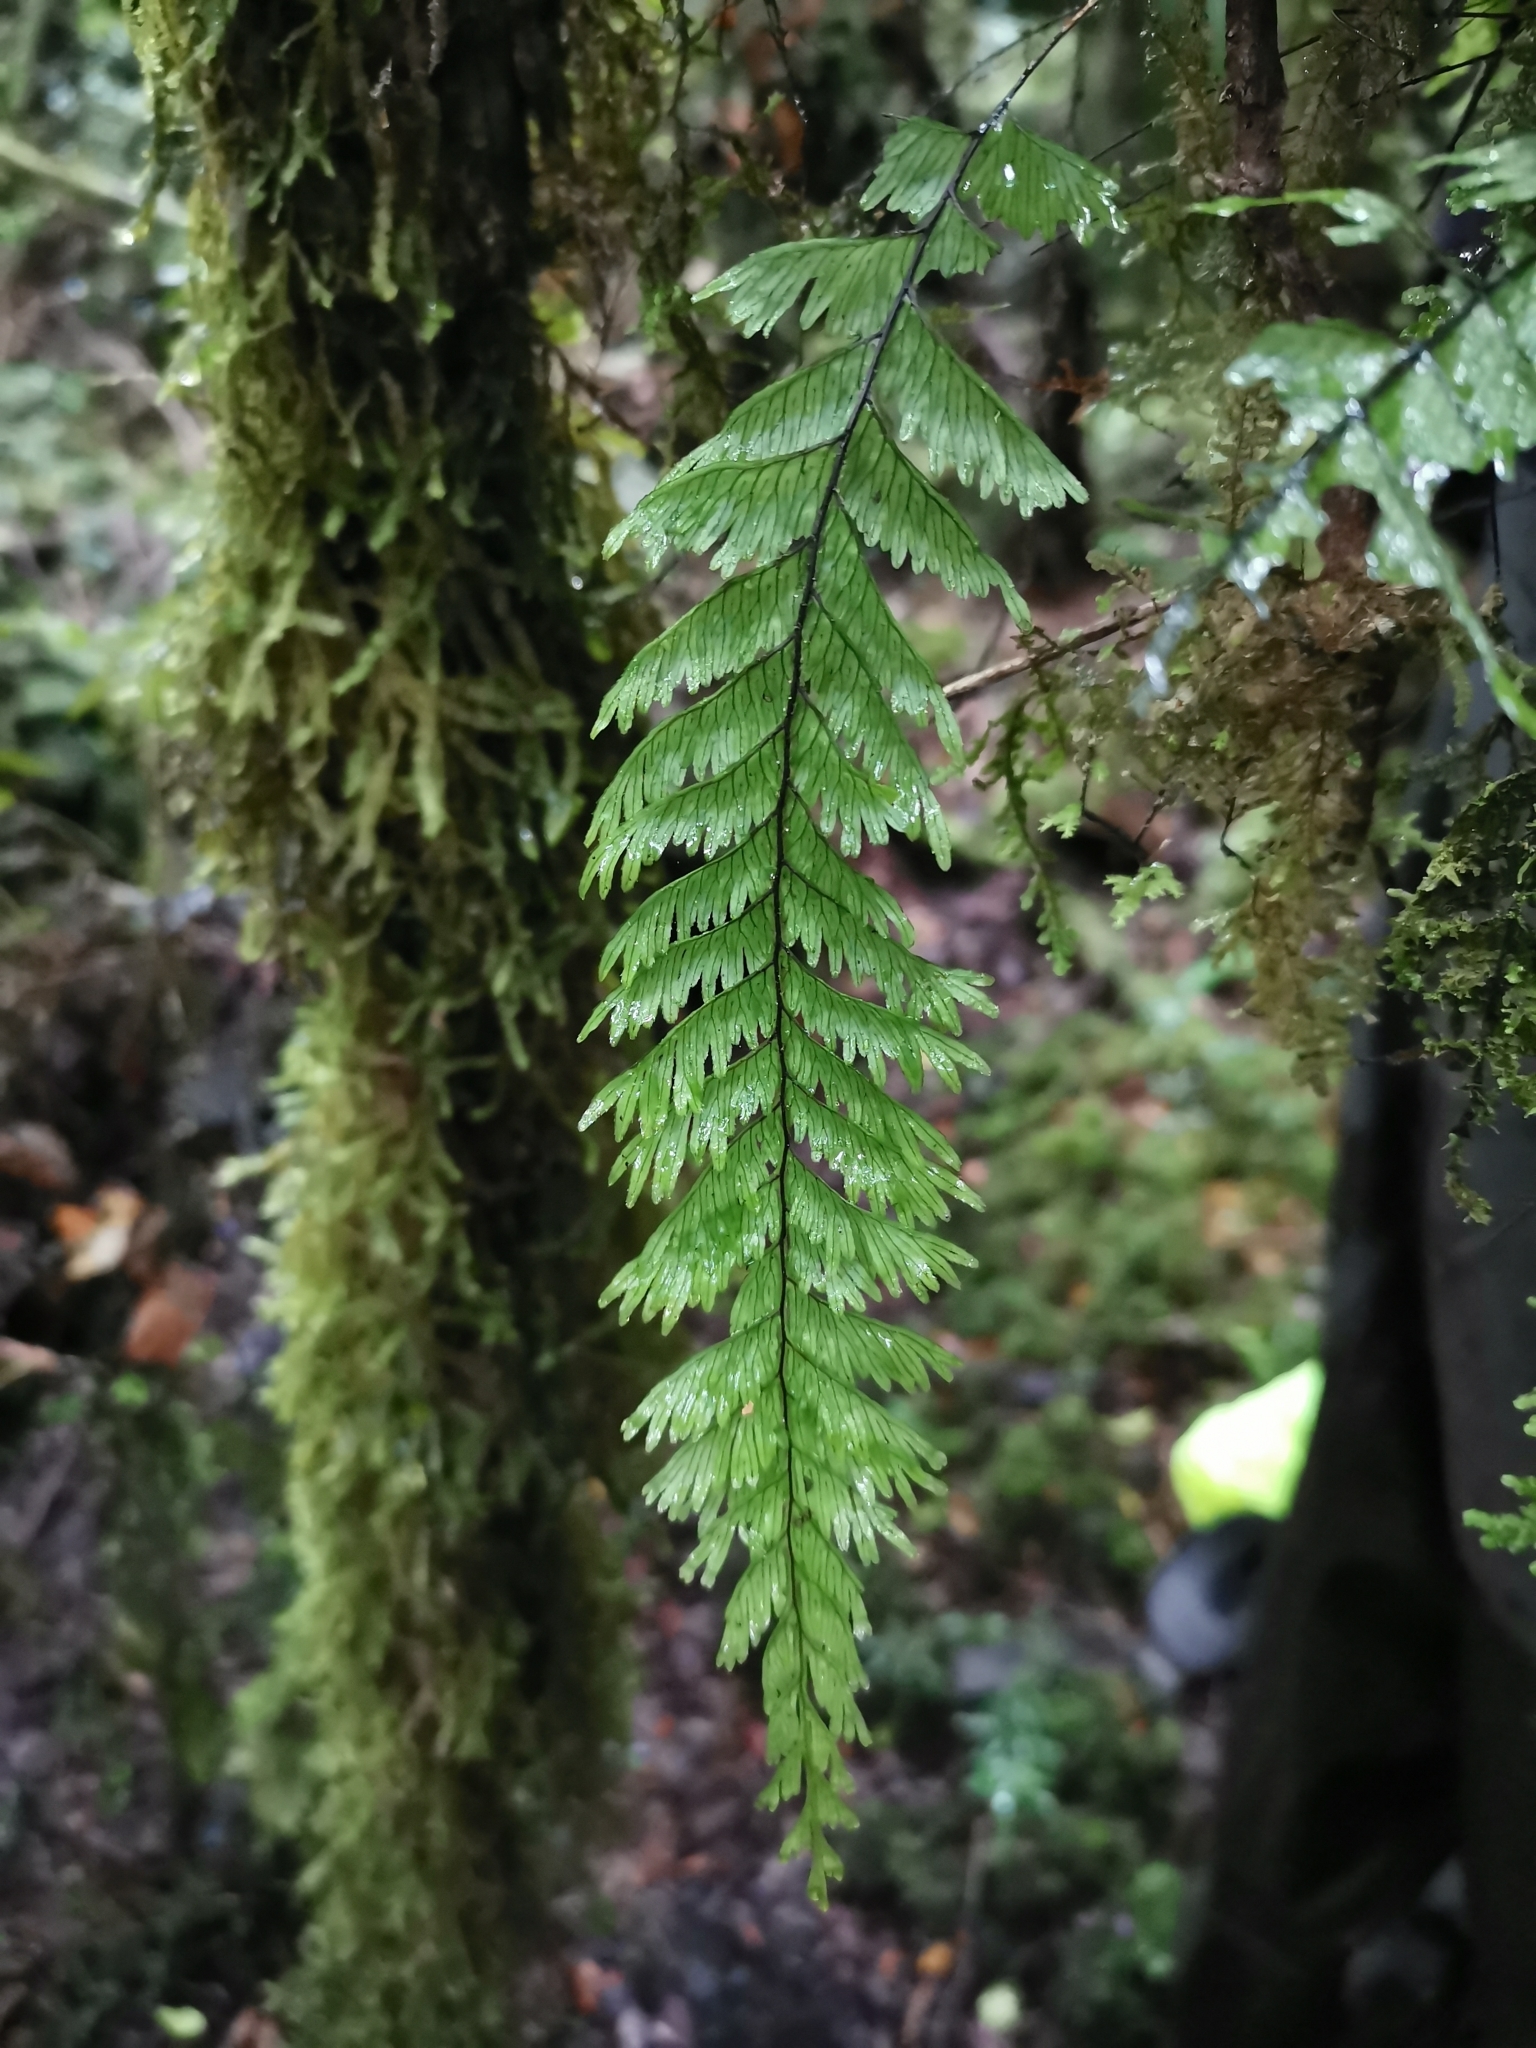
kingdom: Plantae
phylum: Tracheophyta
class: Polypodiopsida
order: Hymenophyllales
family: Hymenophyllaceae
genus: Hymenophyllum
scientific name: Hymenophyllum pectinatum
